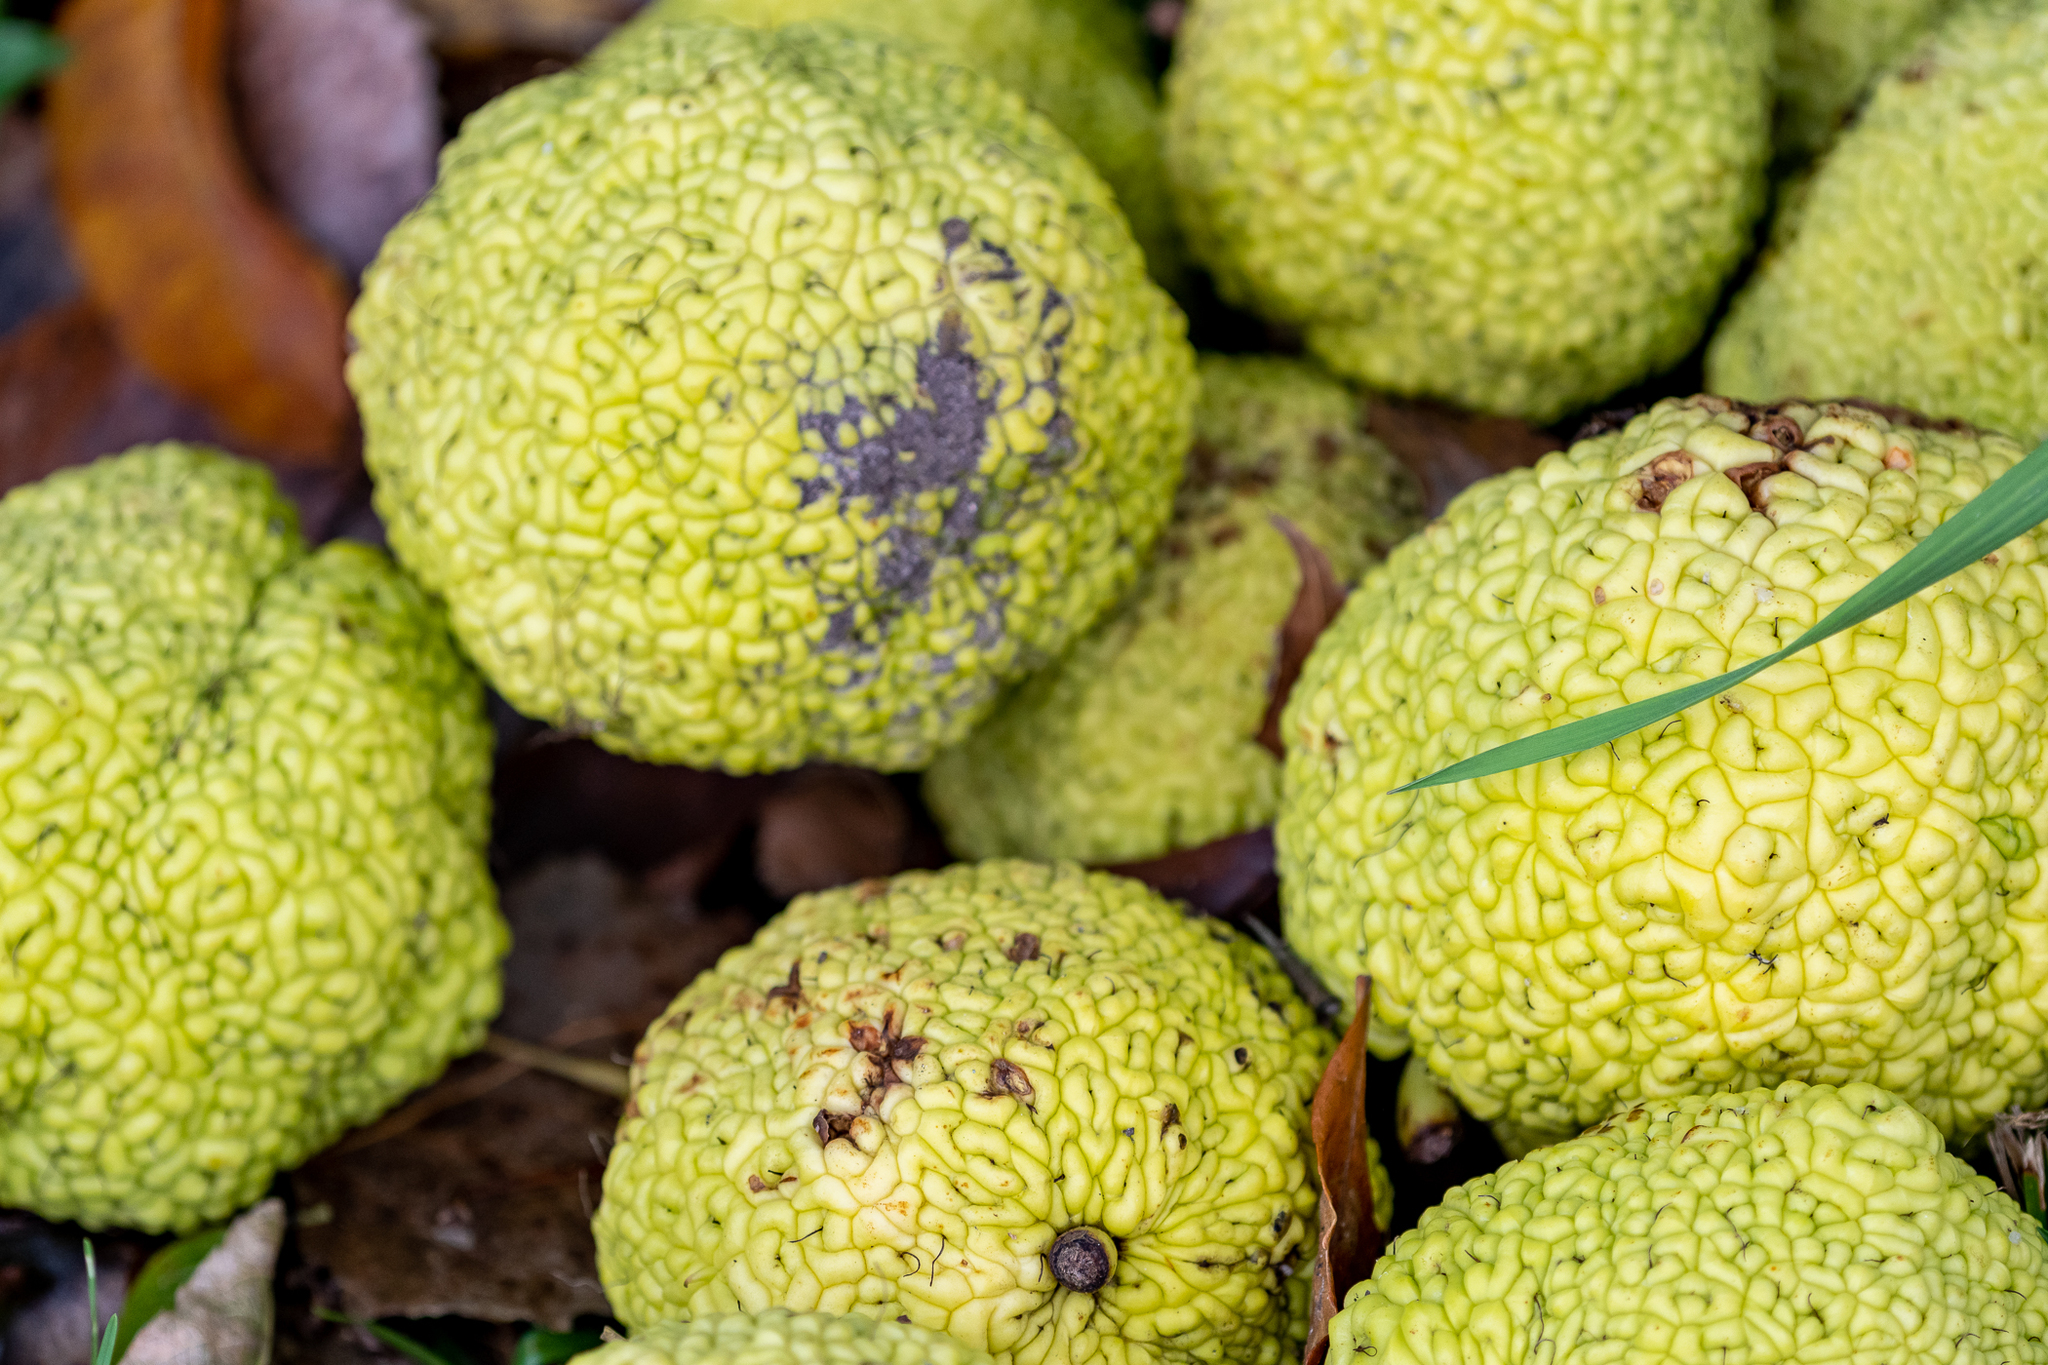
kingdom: Plantae
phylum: Tracheophyta
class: Magnoliopsida
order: Rosales
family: Moraceae
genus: Maclura
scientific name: Maclura pomifera
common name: Osage-orange
